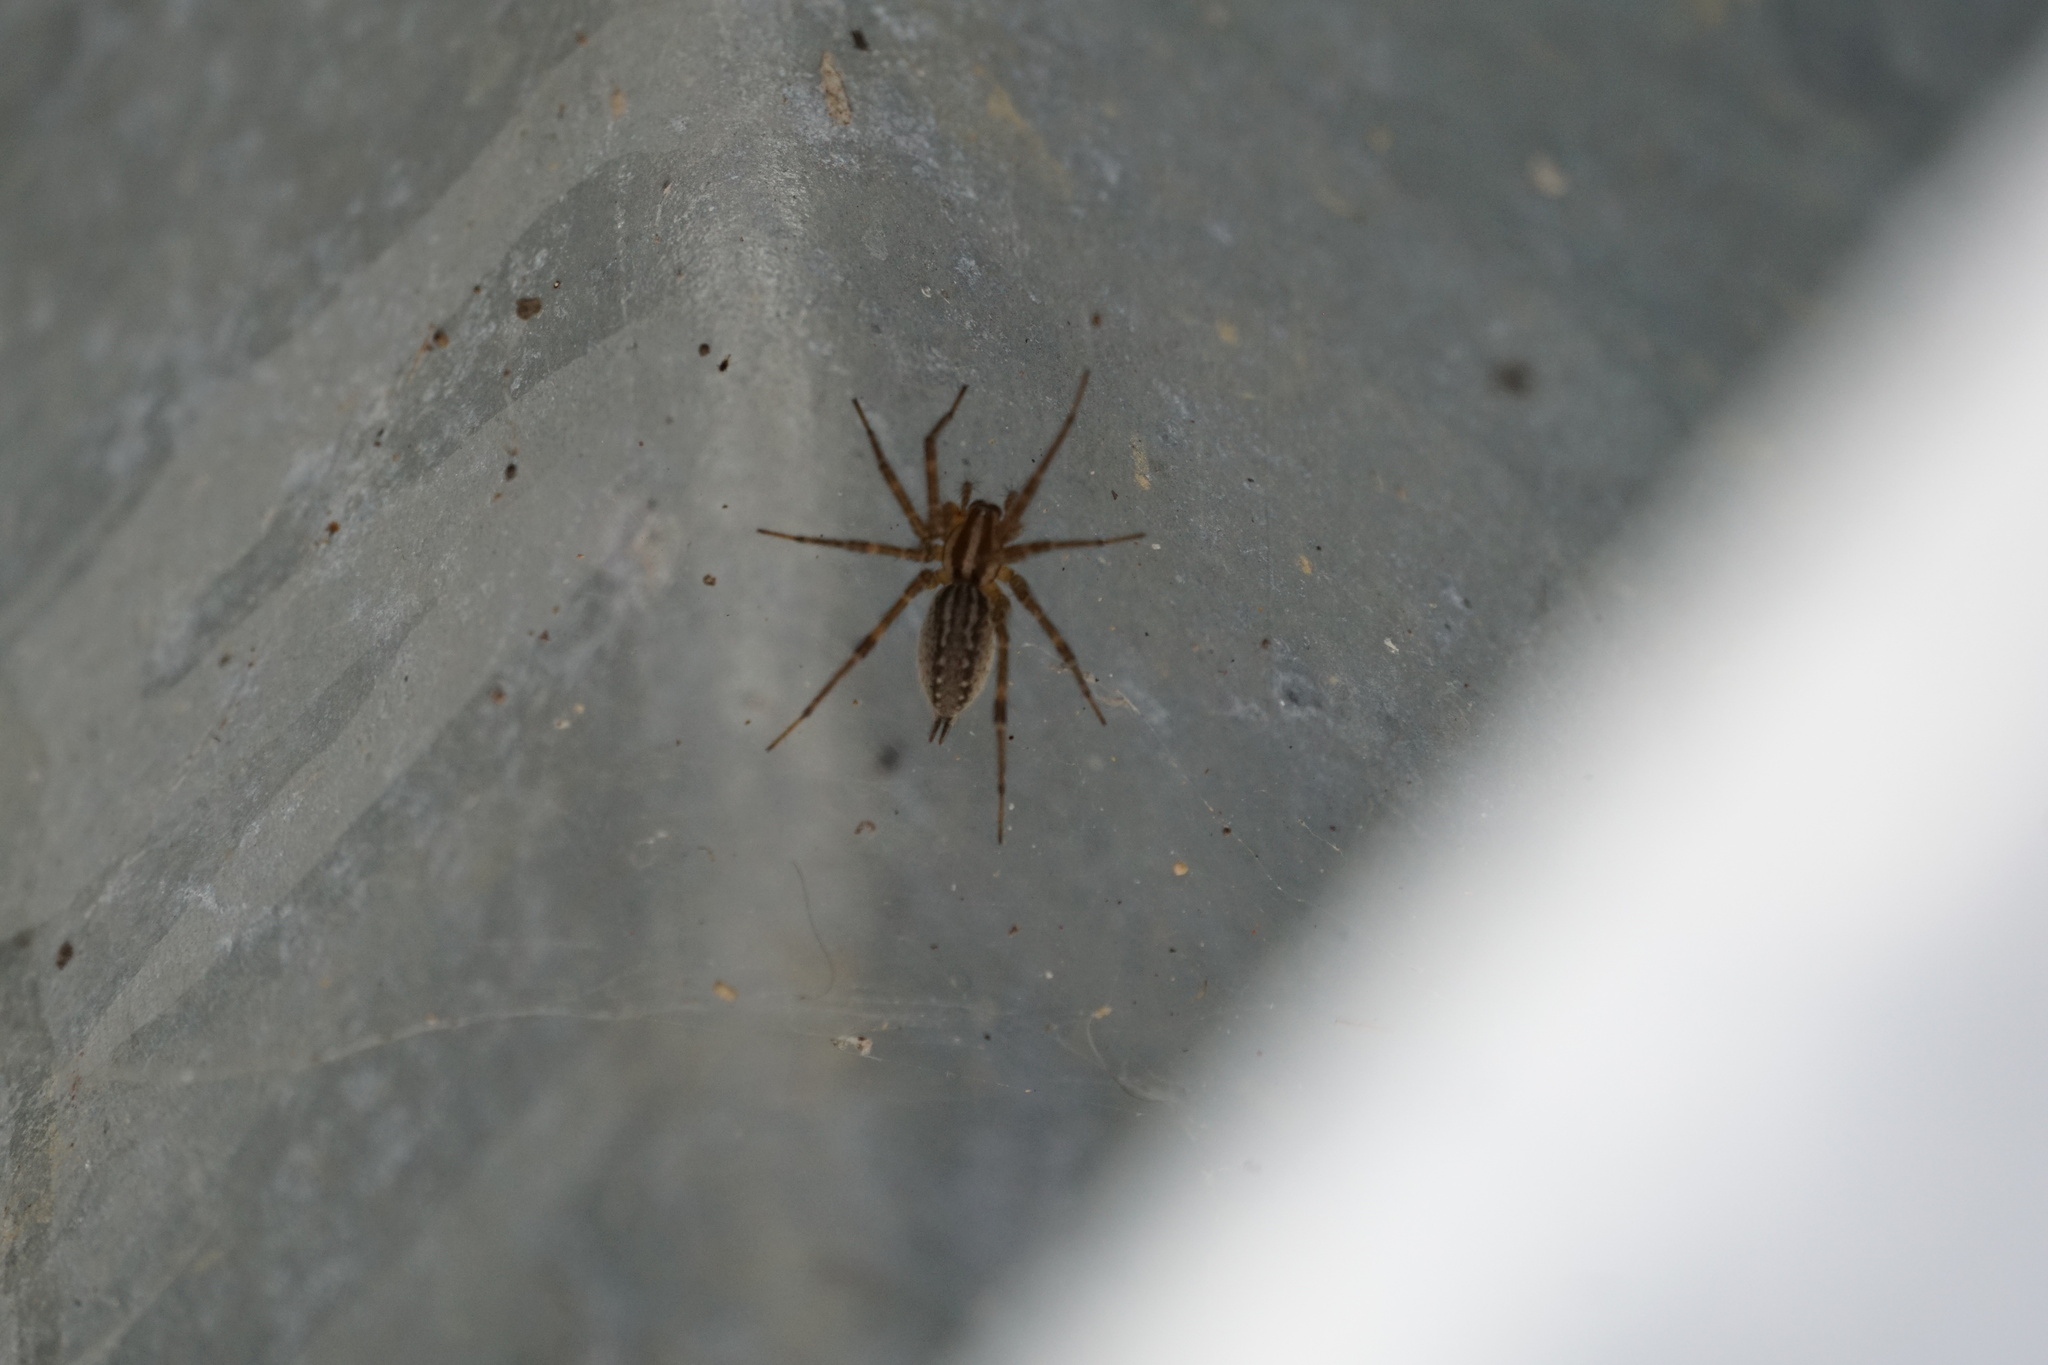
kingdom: Animalia
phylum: Arthropoda
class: Arachnida
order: Araneae
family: Agelenidae
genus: Agelenopsis
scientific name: Agelenopsis
